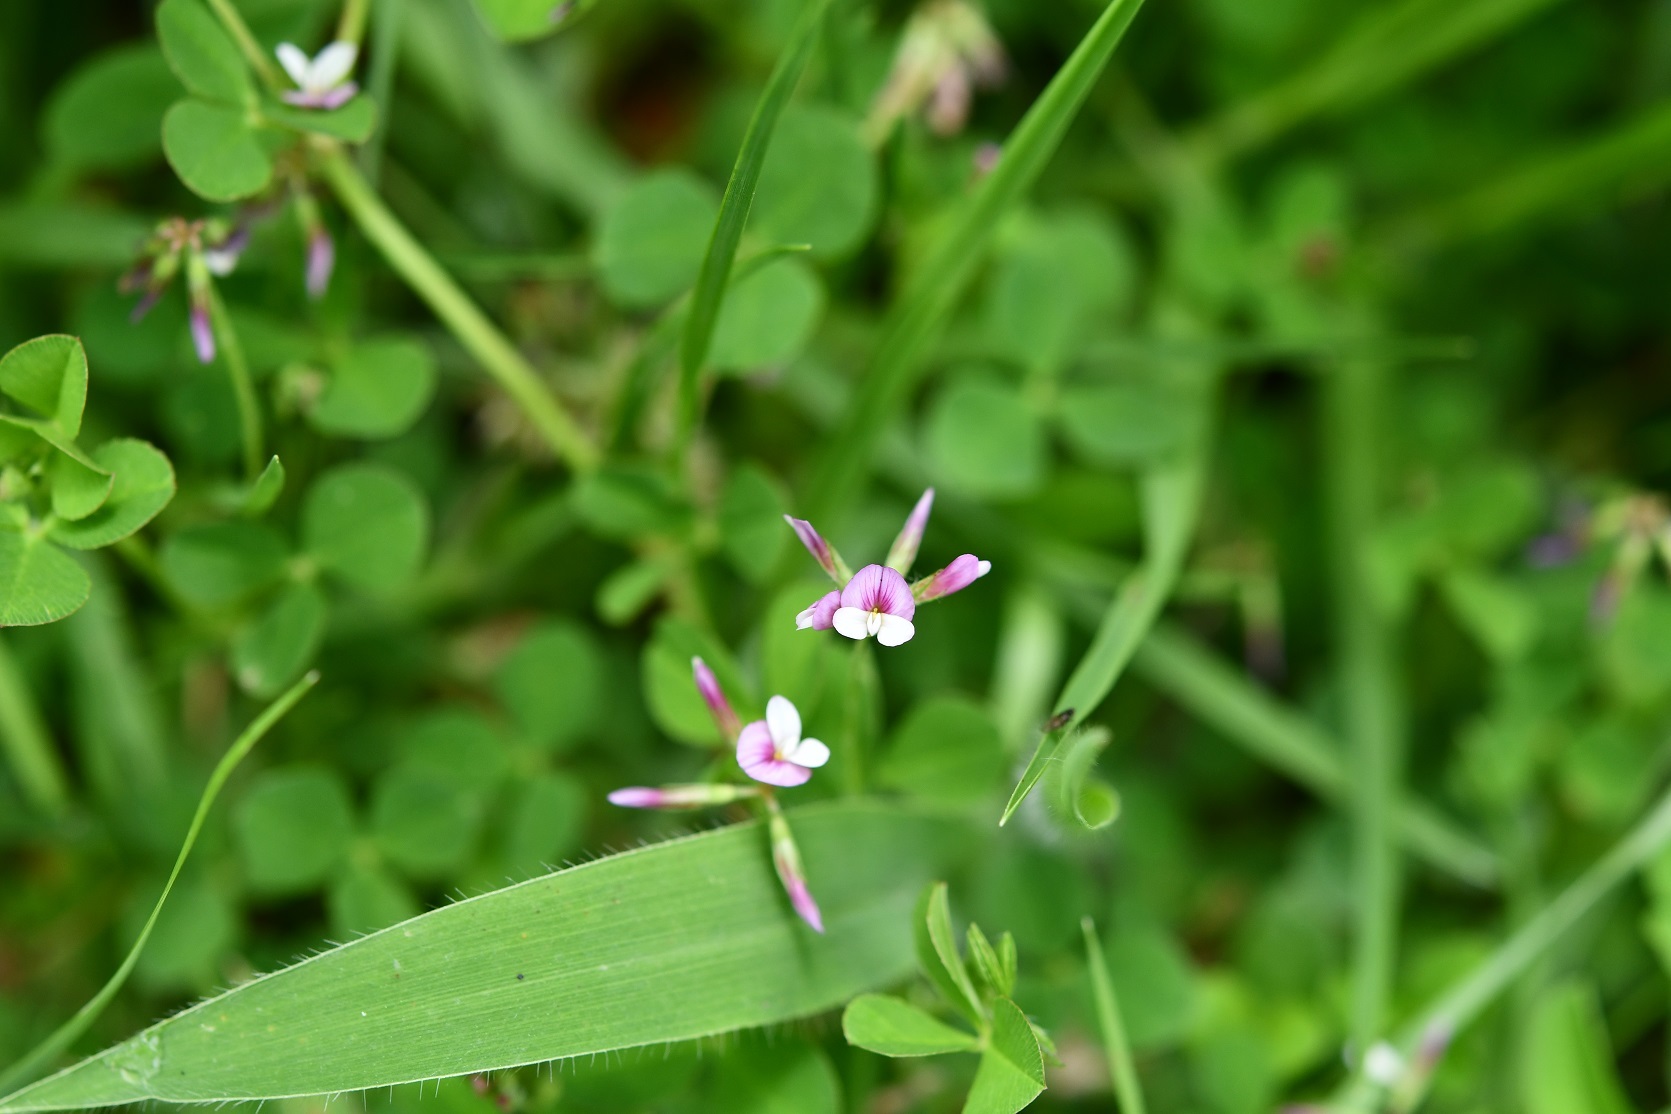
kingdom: Plantae
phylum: Tracheophyta
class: Magnoliopsida
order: Fabales
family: Fabaceae
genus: Trifolium
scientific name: Trifolium amabile
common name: Aztec clover
